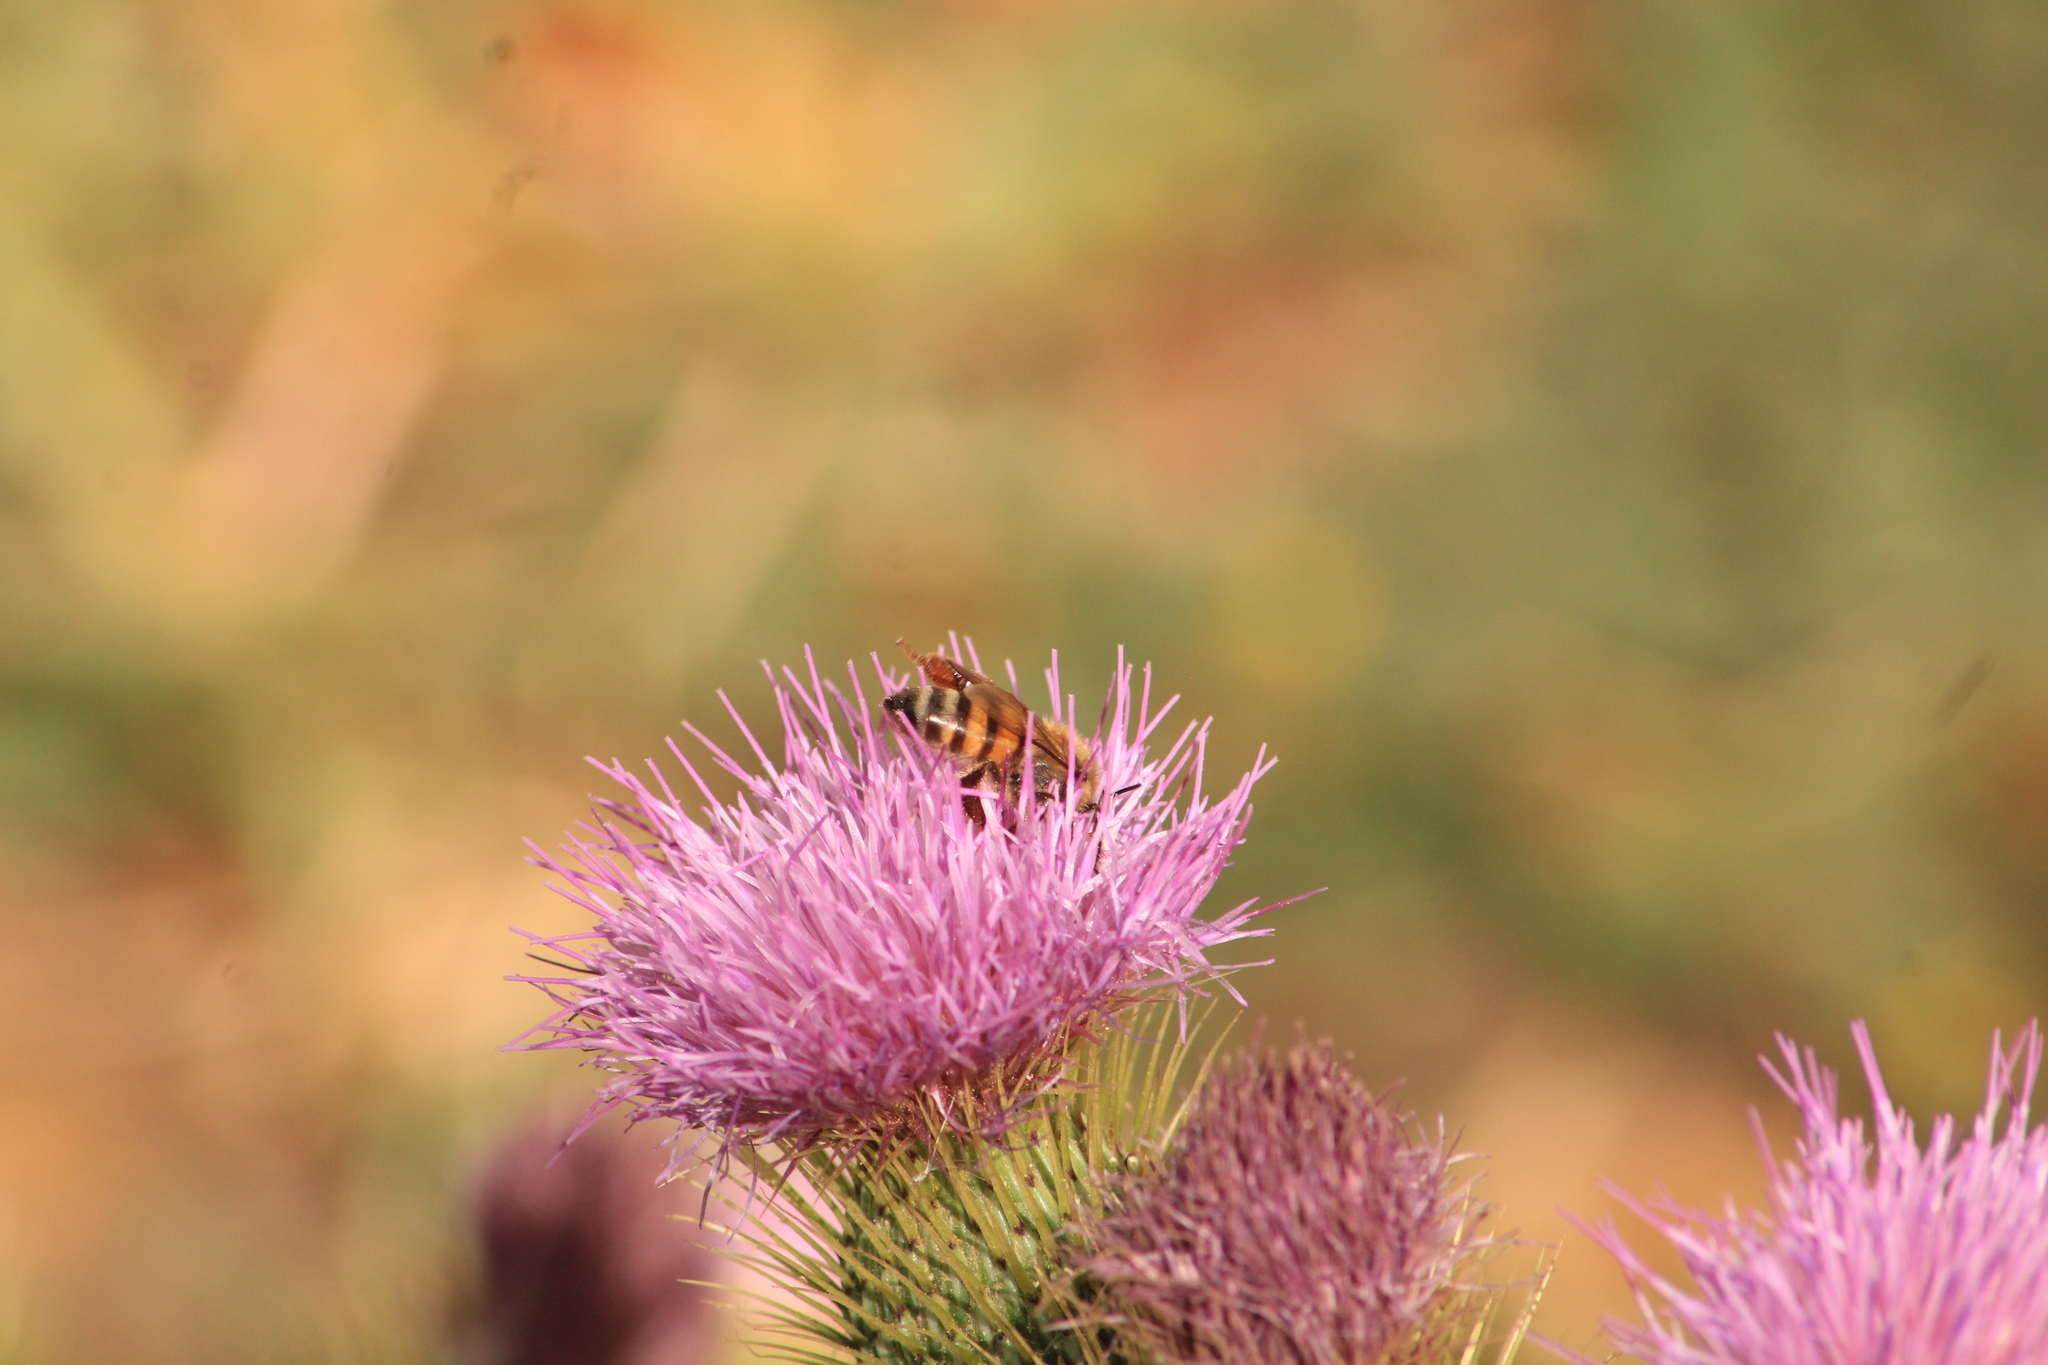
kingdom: Plantae
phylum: Tracheophyta
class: Magnoliopsida
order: Asterales
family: Asteraceae
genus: Cirsium
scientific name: Cirsium rhaphilepis
